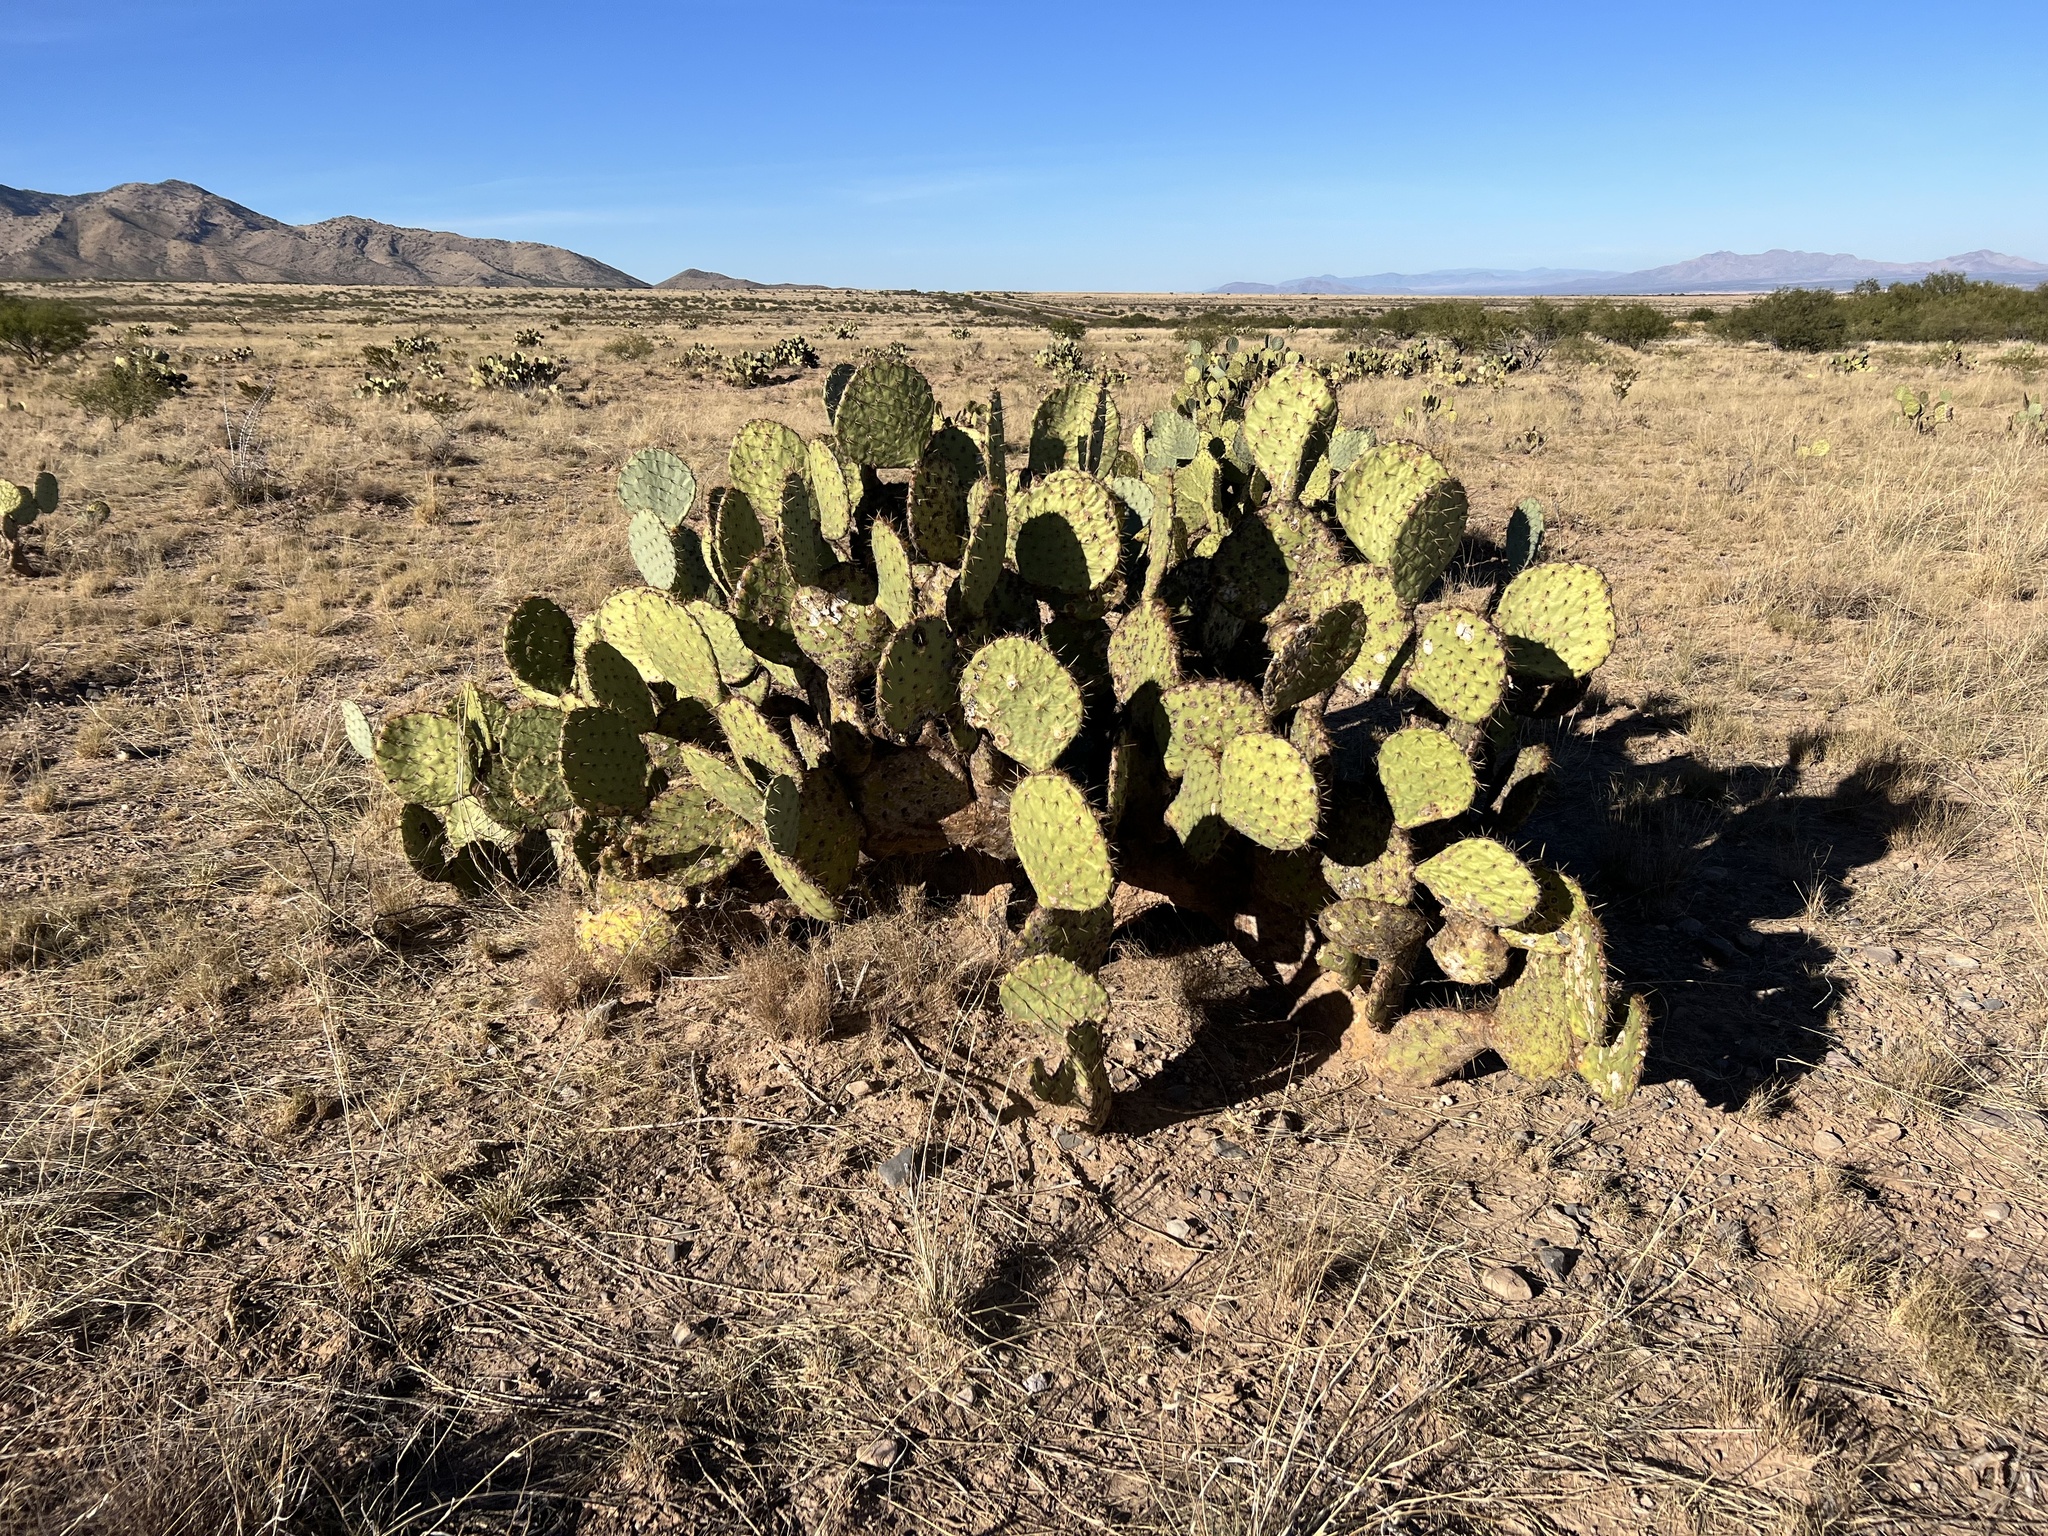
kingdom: Plantae
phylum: Tracheophyta
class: Magnoliopsida
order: Caryophyllales
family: Cactaceae
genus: Opuntia
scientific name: Opuntia engelmannii
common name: Cactus-apple
